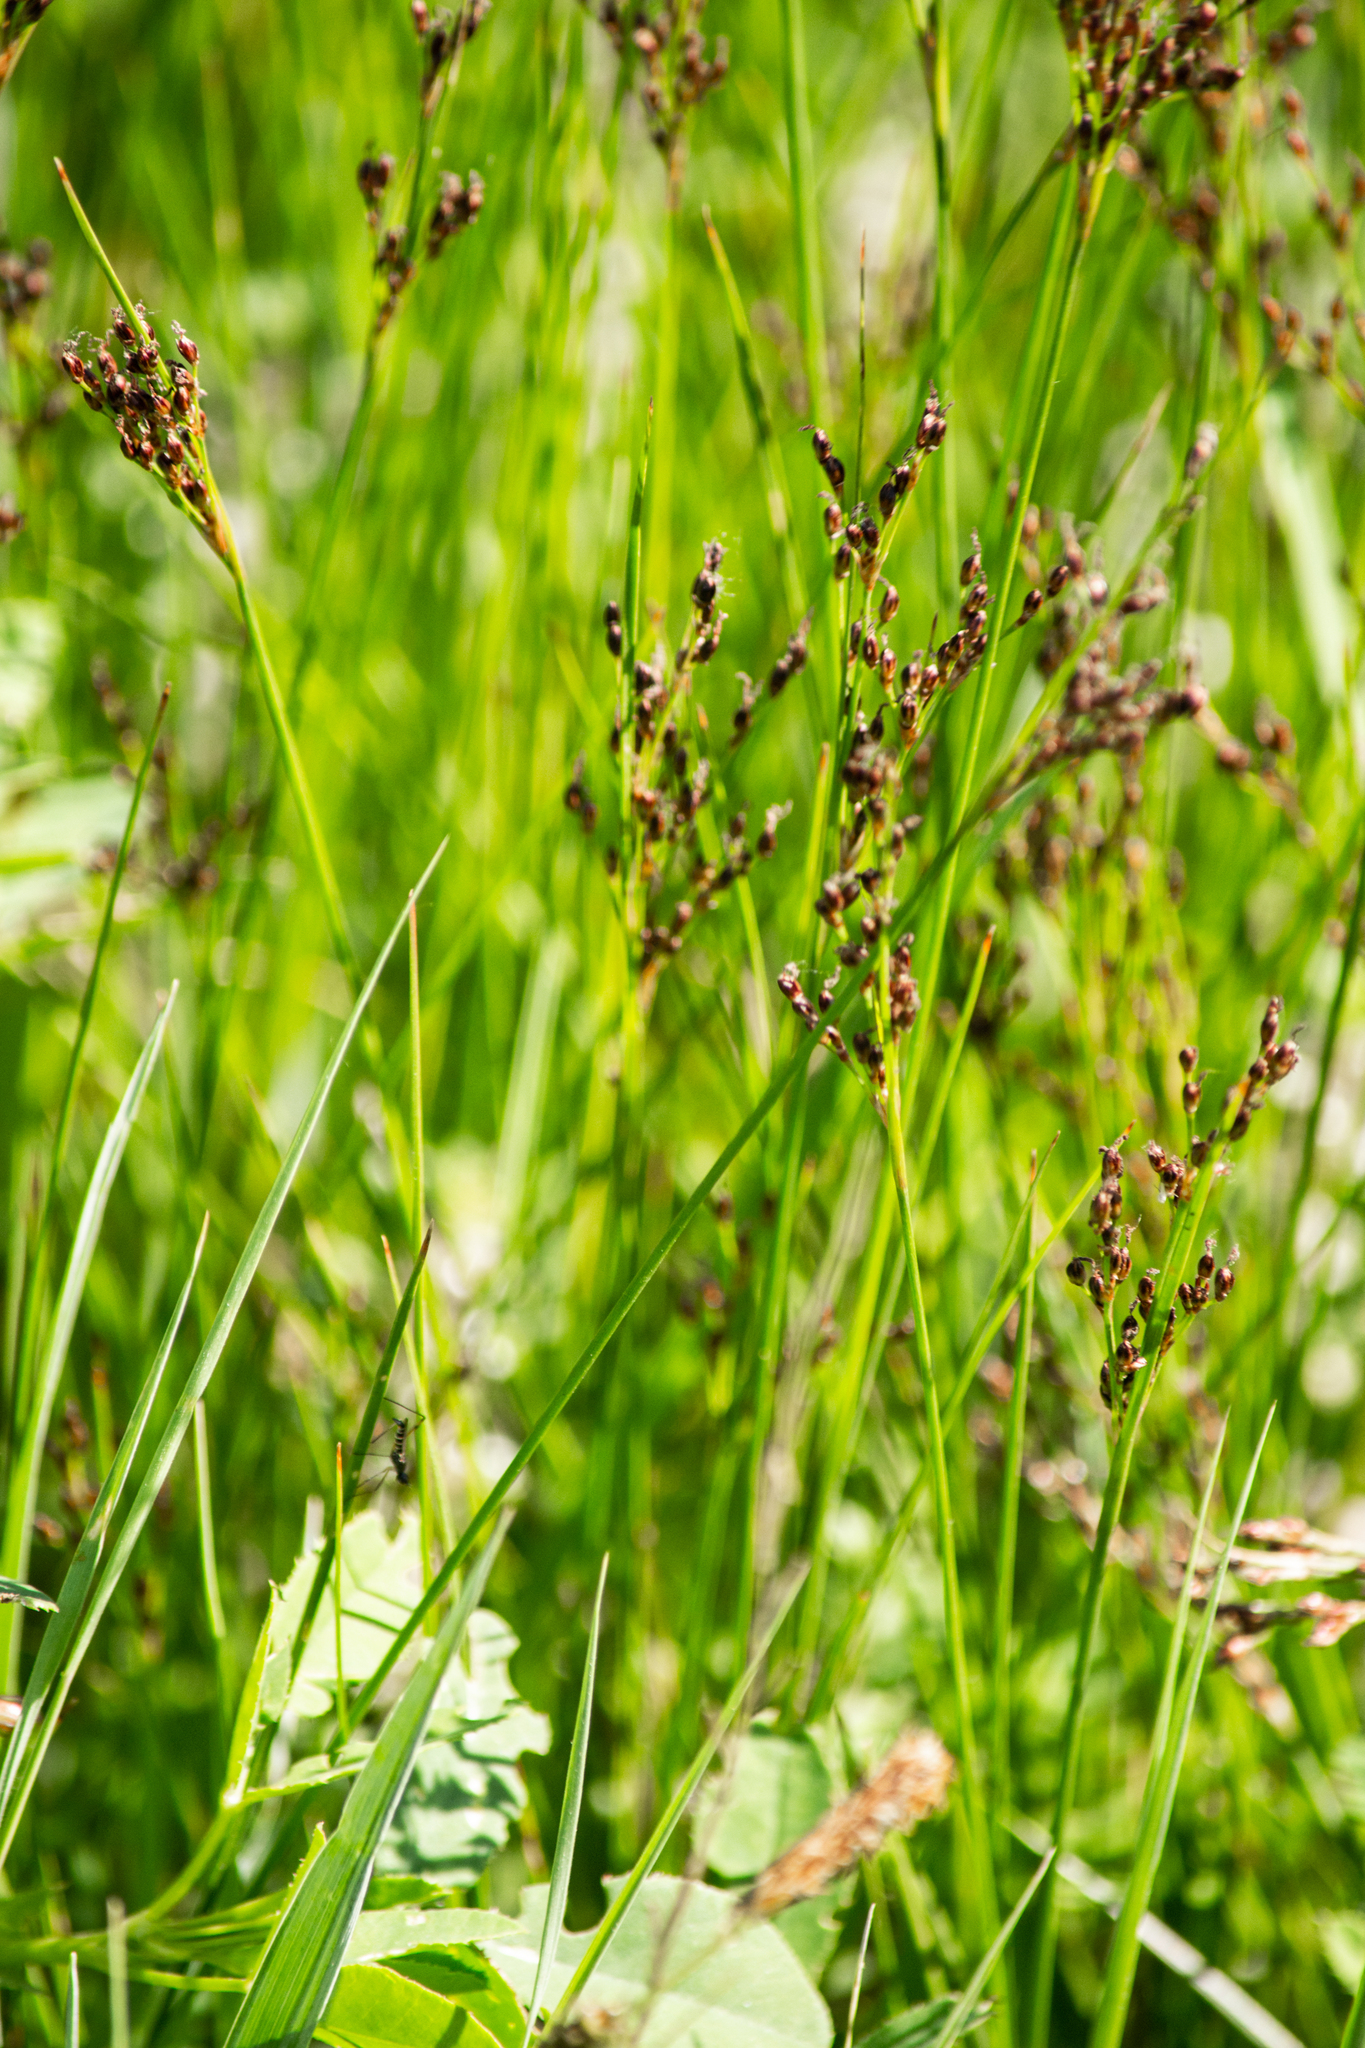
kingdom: Plantae
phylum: Tracheophyta
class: Liliopsida
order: Poales
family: Juncaceae
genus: Juncus
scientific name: Juncus compressus
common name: Round-fruited rush
